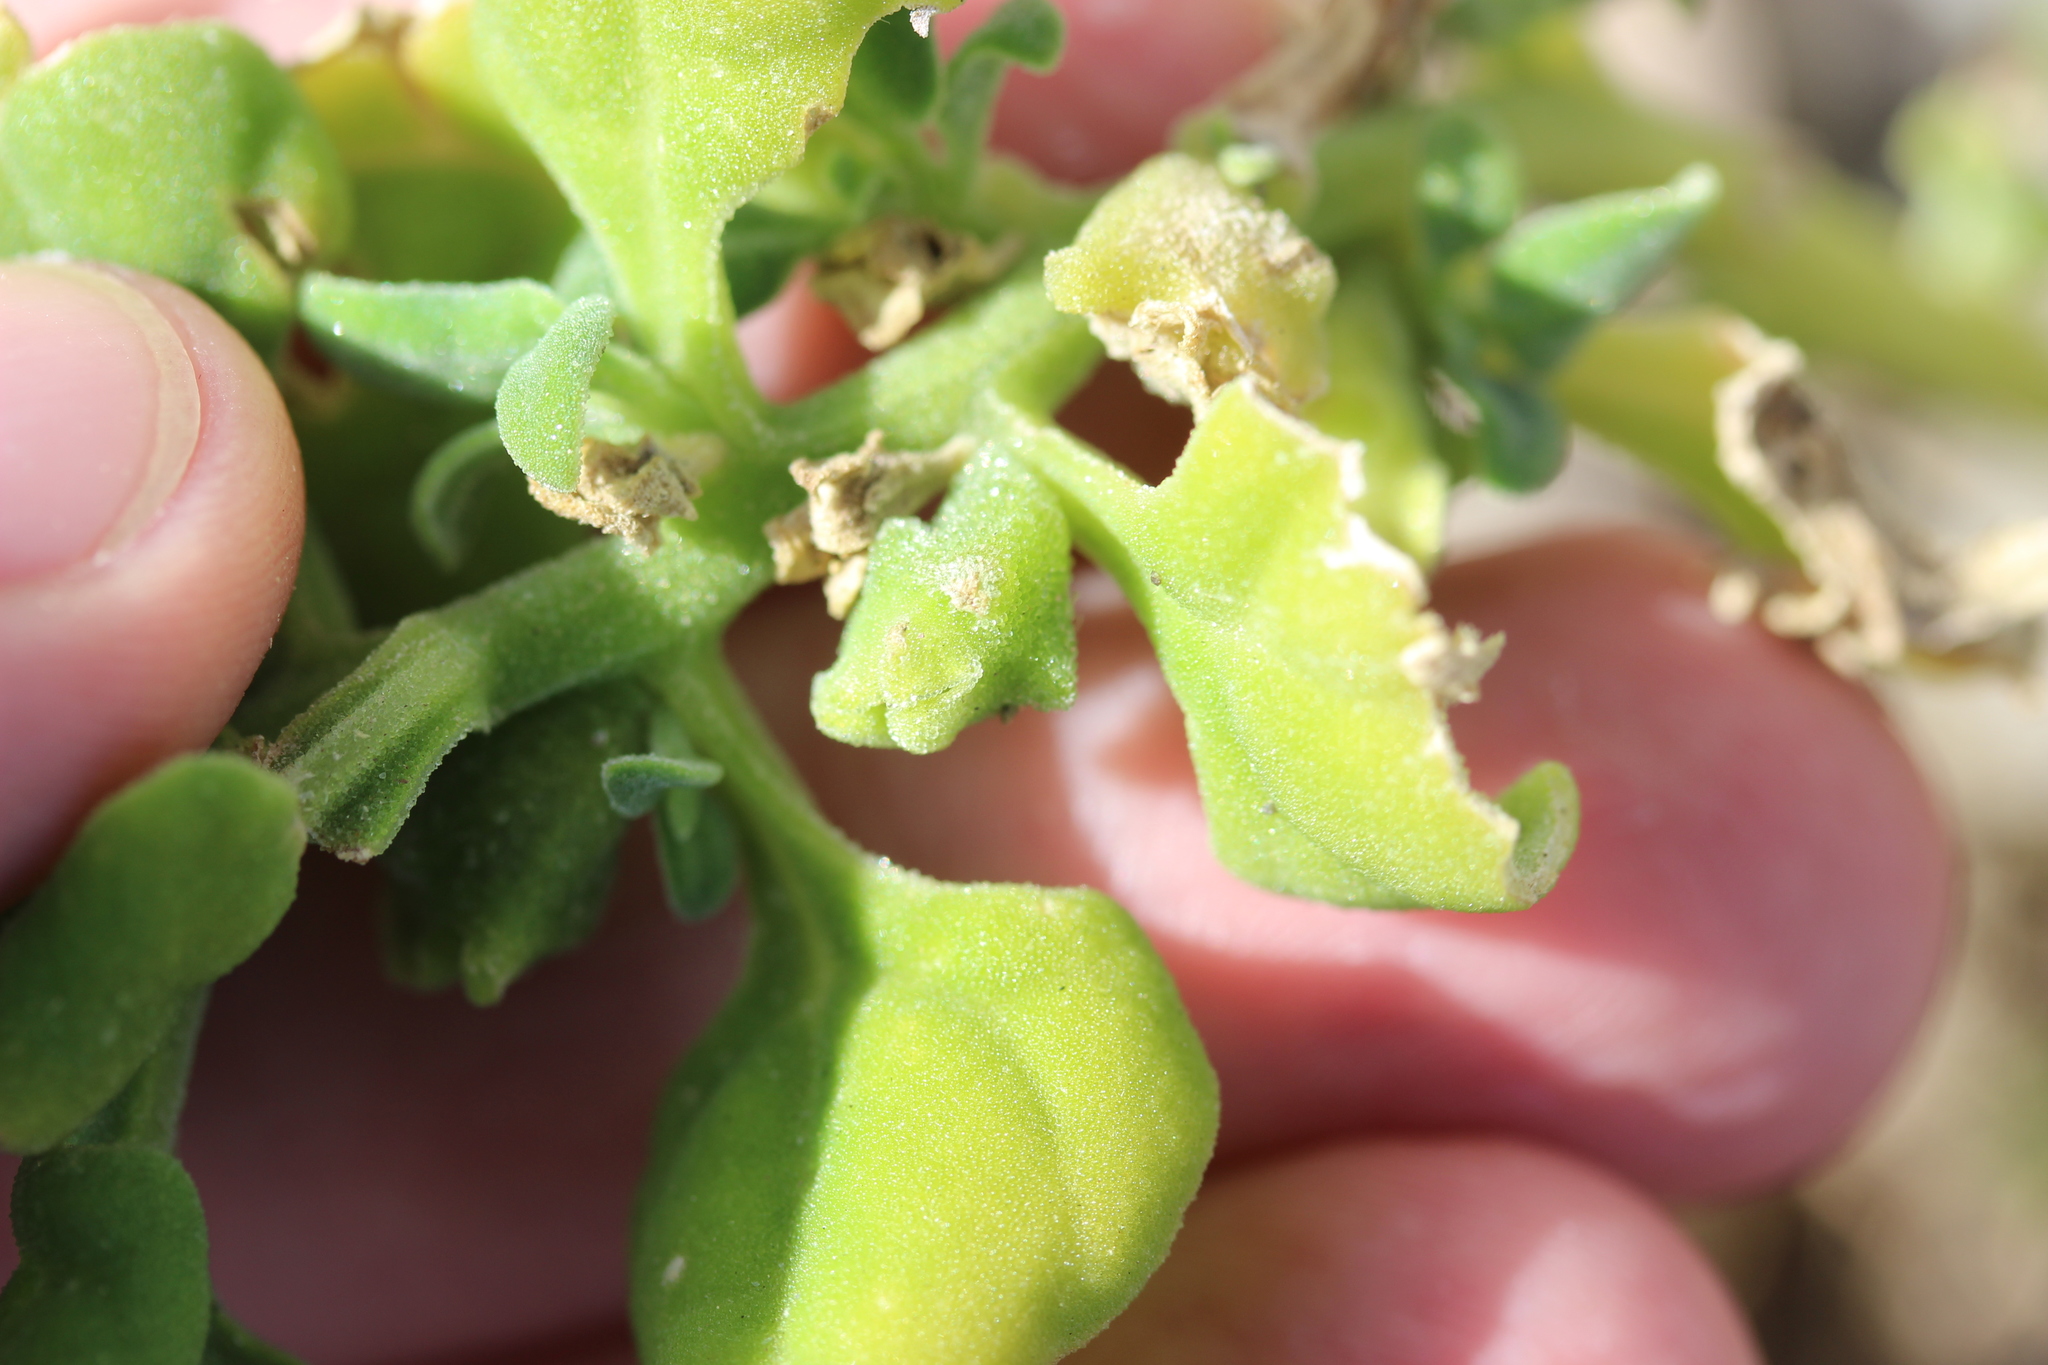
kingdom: Plantae
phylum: Tracheophyta
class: Magnoliopsida
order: Caryophyllales
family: Aizoaceae
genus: Tetragonia
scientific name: Tetragonia tetragonoides
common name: New zealand-spinach
